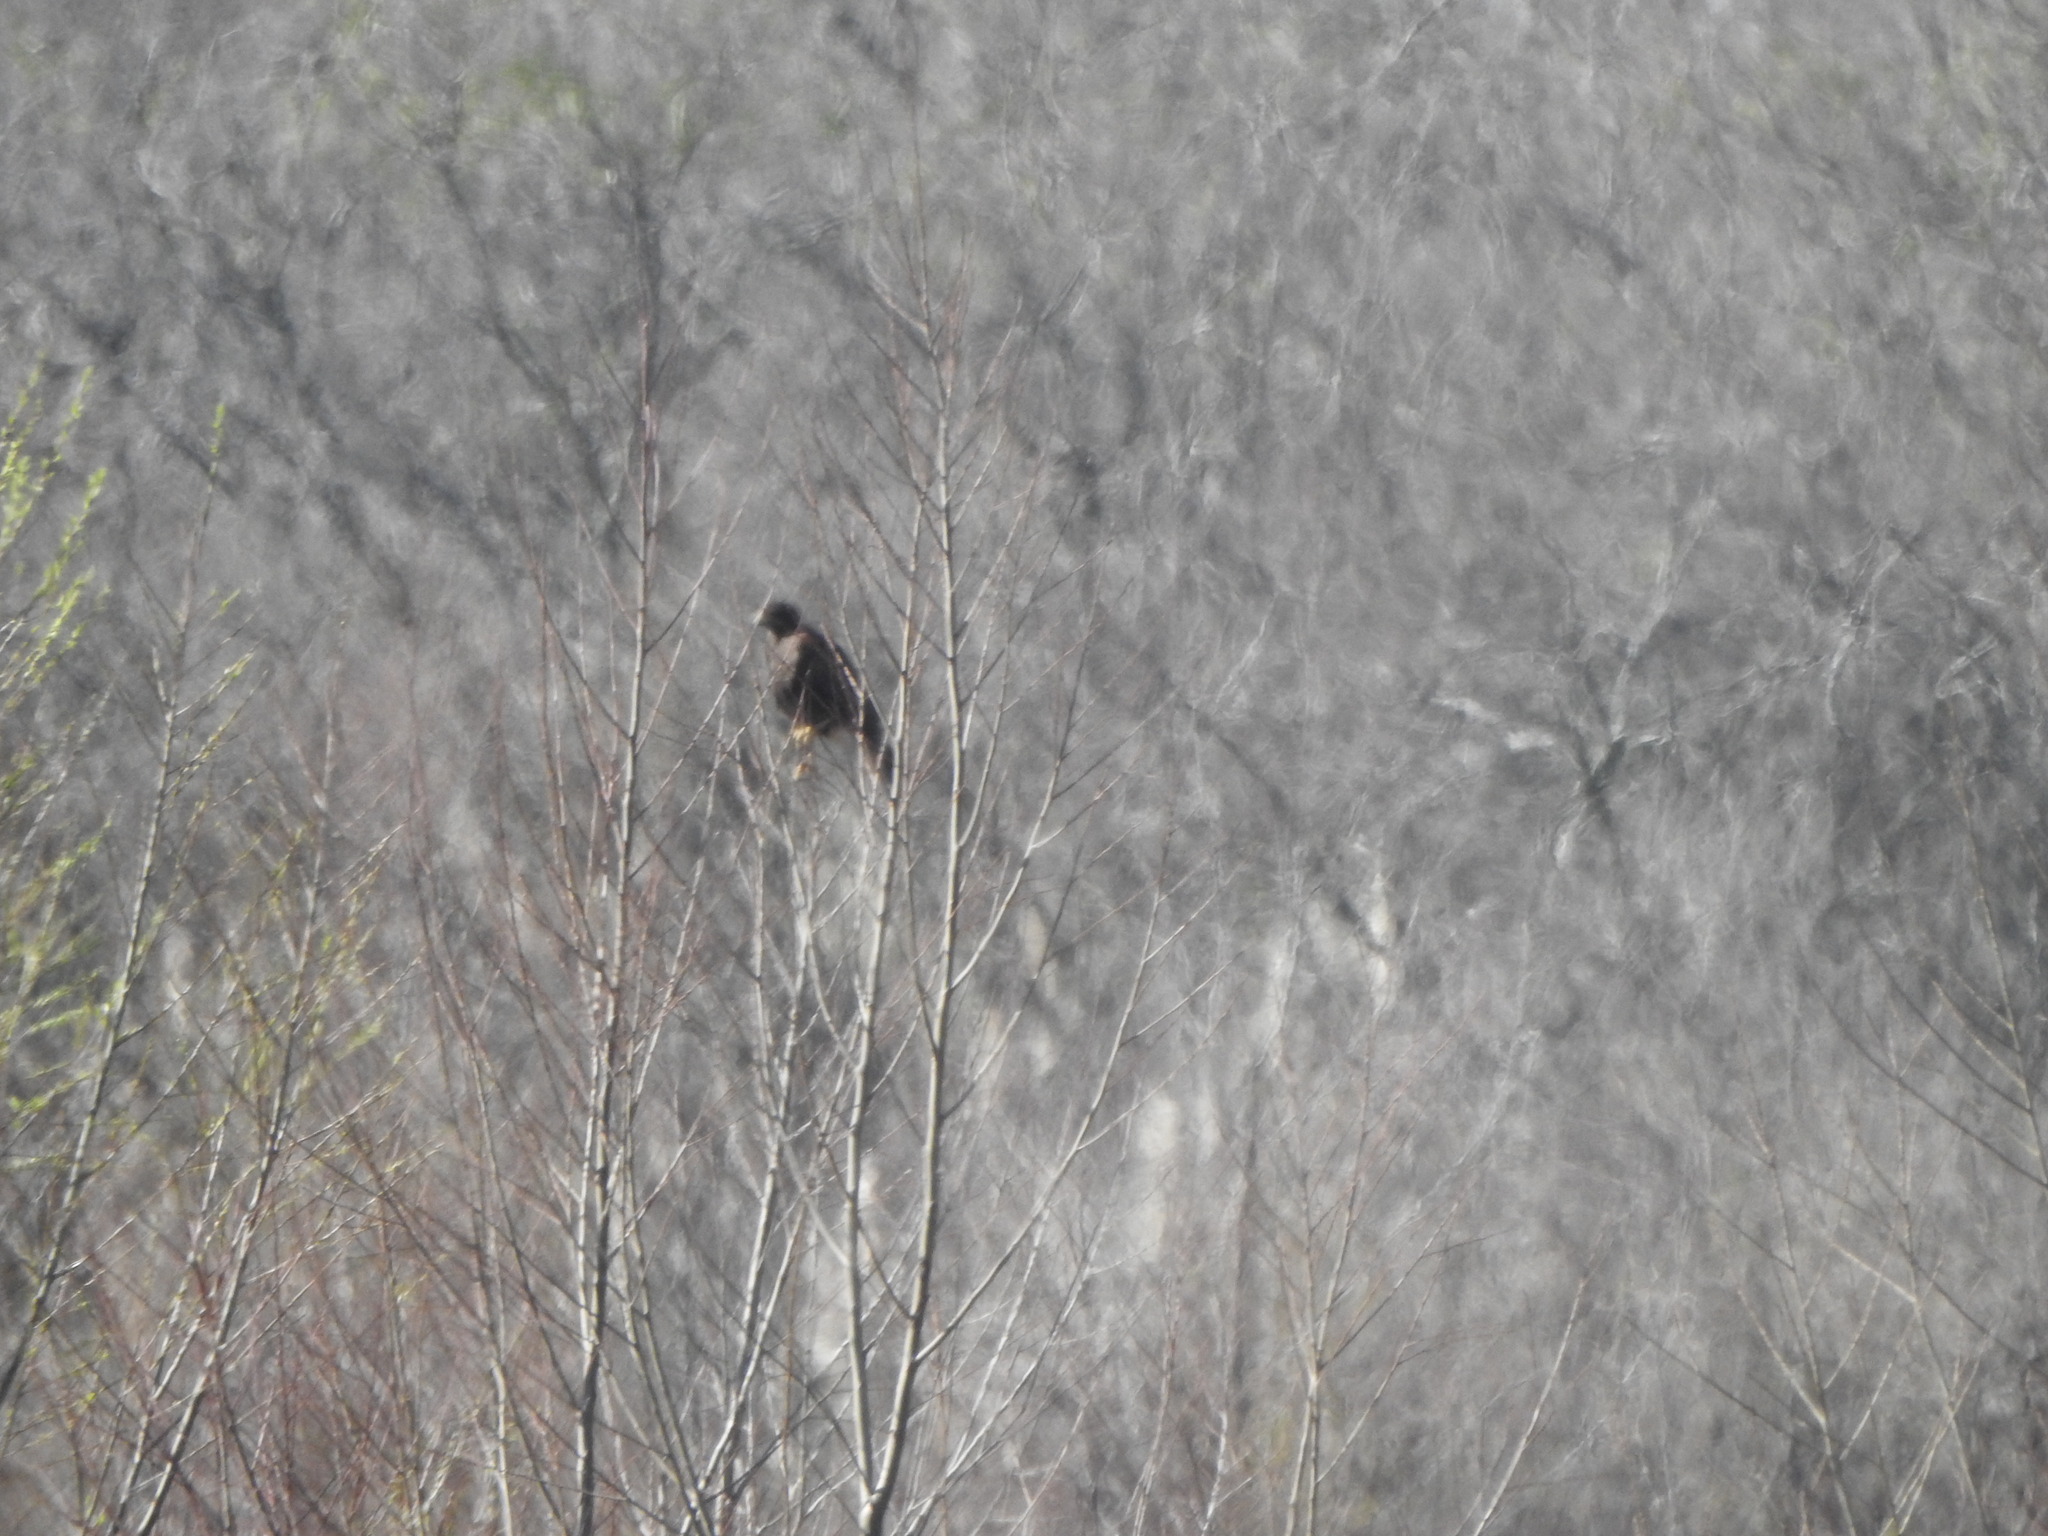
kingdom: Animalia
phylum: Chordata
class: Aves
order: Accipitriformes
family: Accipitridae
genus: Parabuteo
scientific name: Parabuteo unicinctus
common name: Harris's hawk
